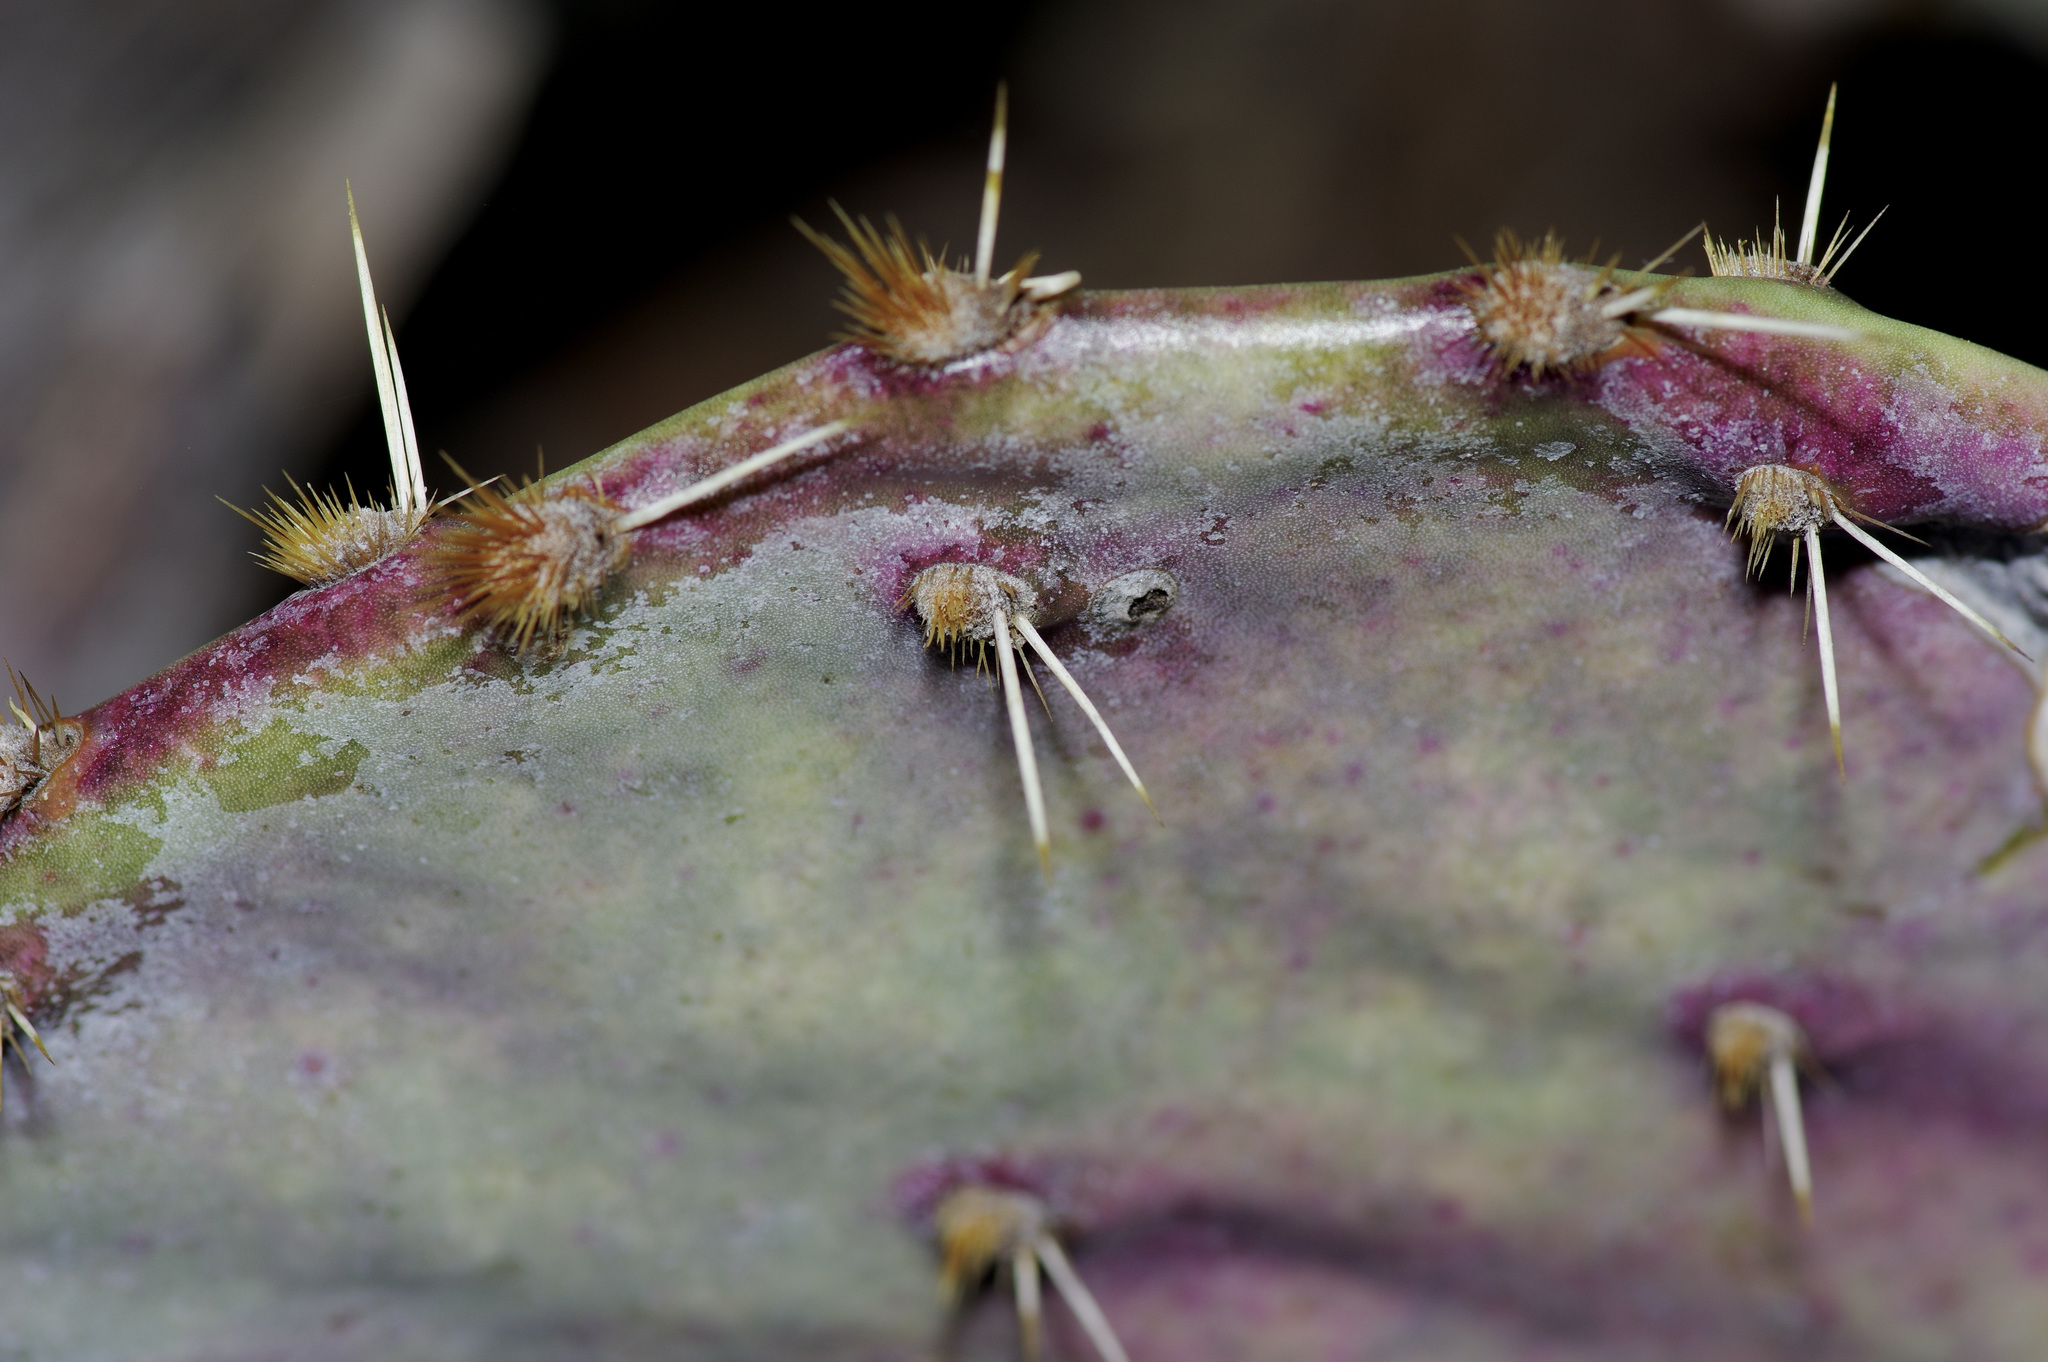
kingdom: Plantae
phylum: Tracheophyta
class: Magnoliopsida
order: Caryophyllales
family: Cactaceae
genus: Opuntia
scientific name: Opuntia orbiculata
